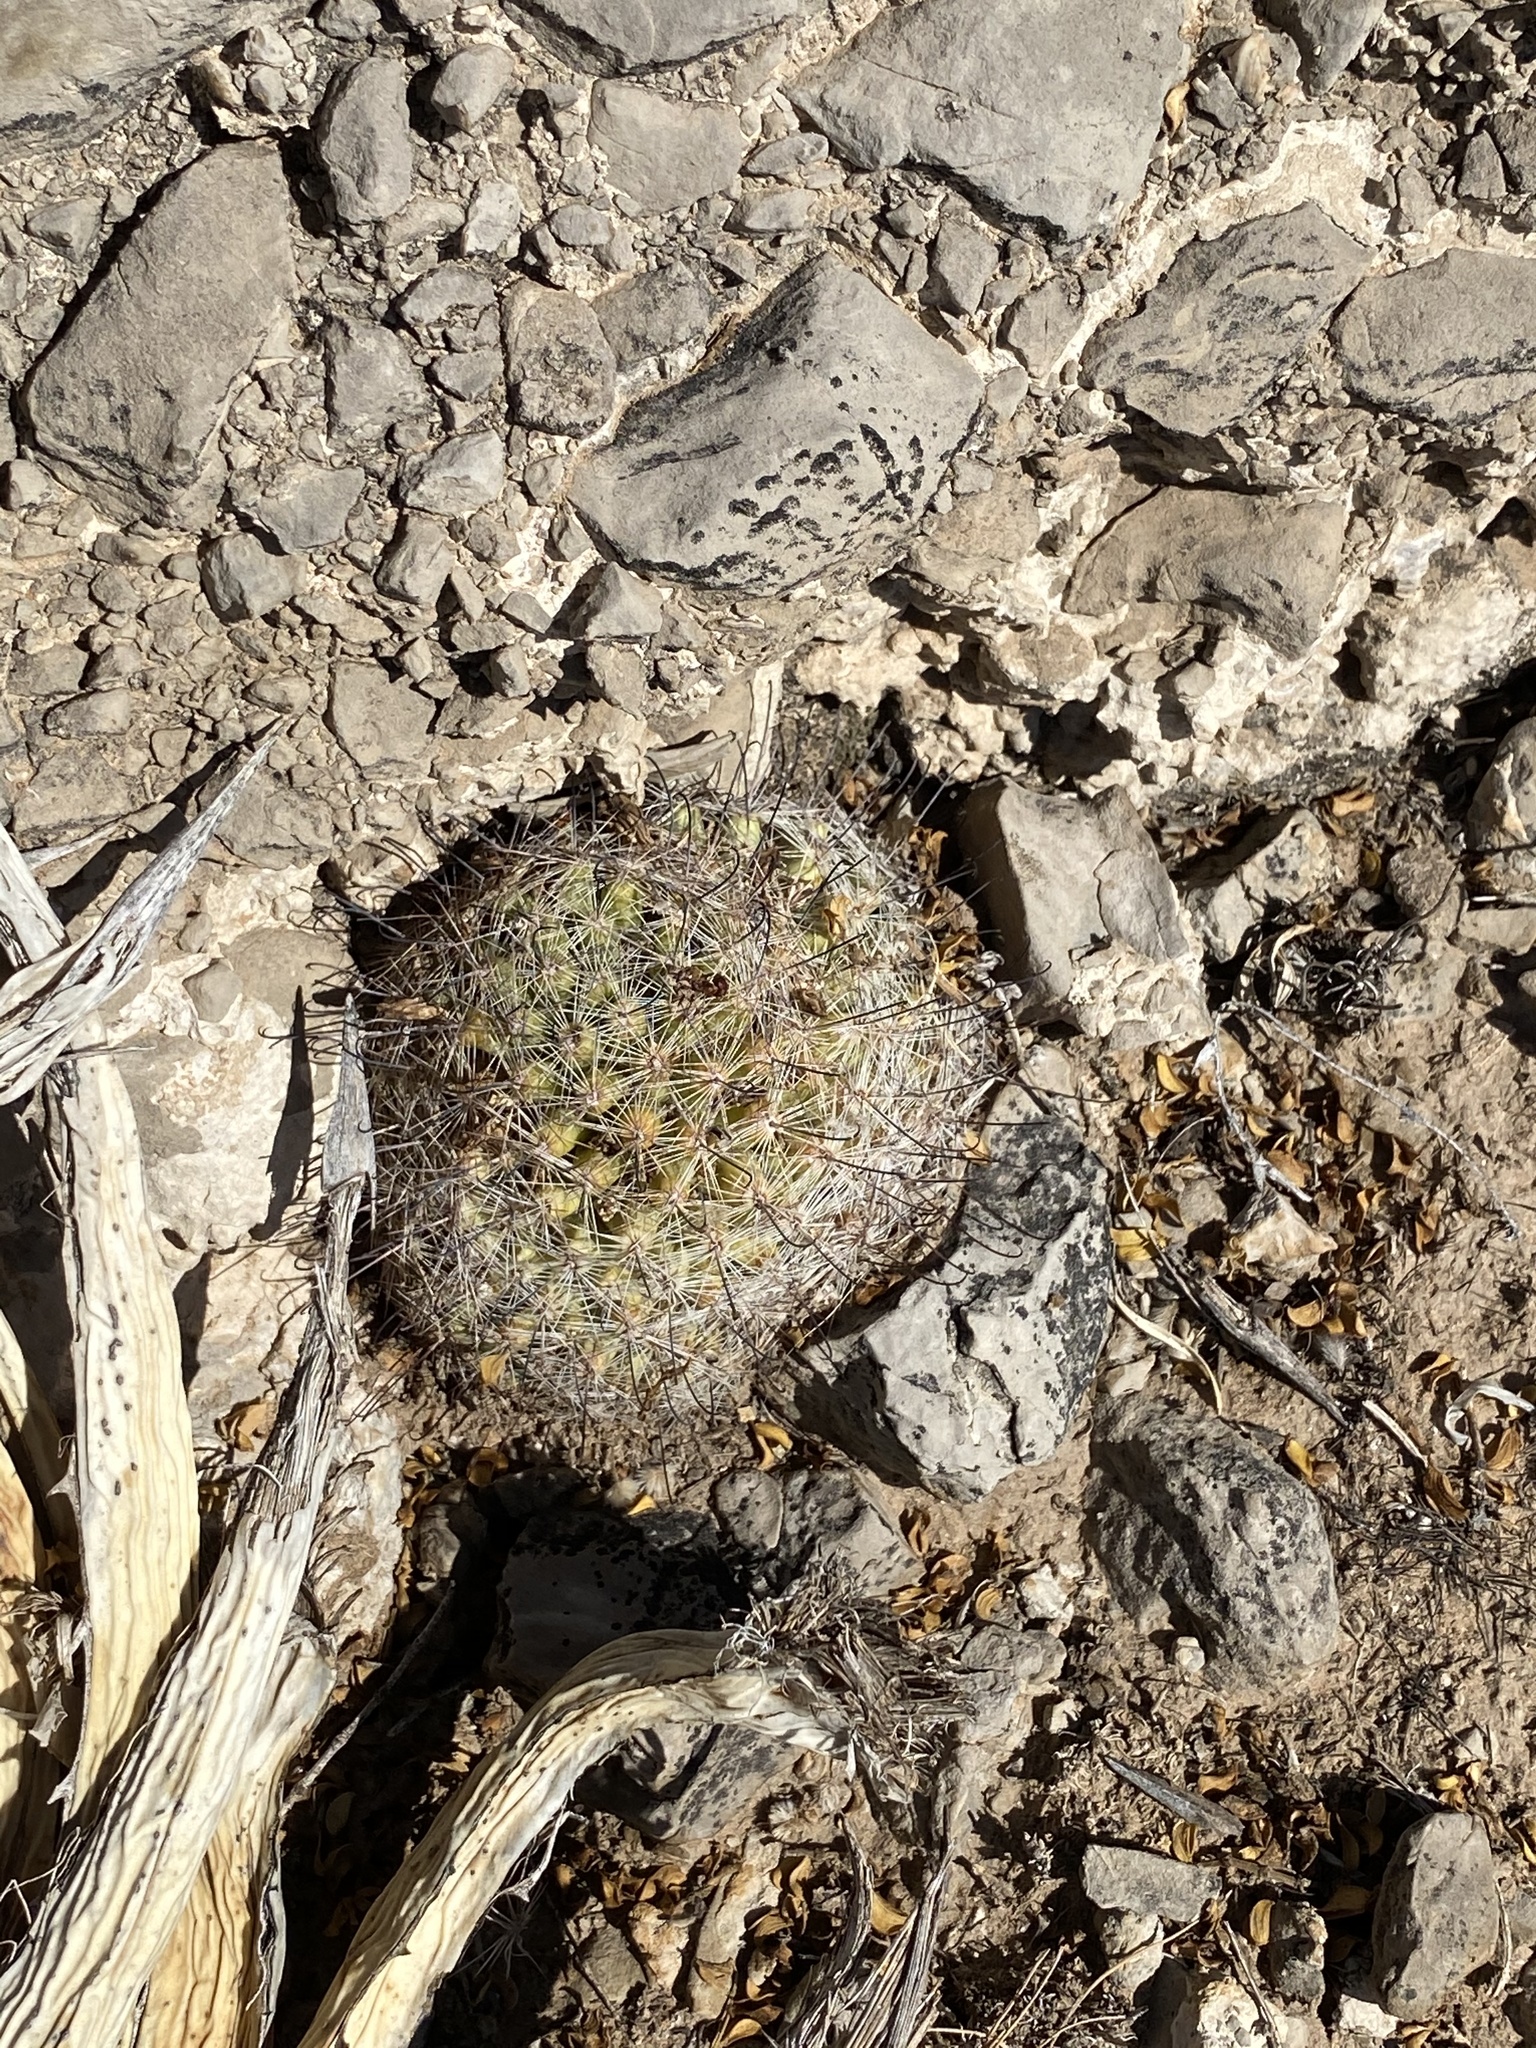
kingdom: Plantae
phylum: Tracheophyta
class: Magnoliopsida
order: Caryophyllales
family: Cactaceae
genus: Cochemiea
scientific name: Cochemiea grahamii
